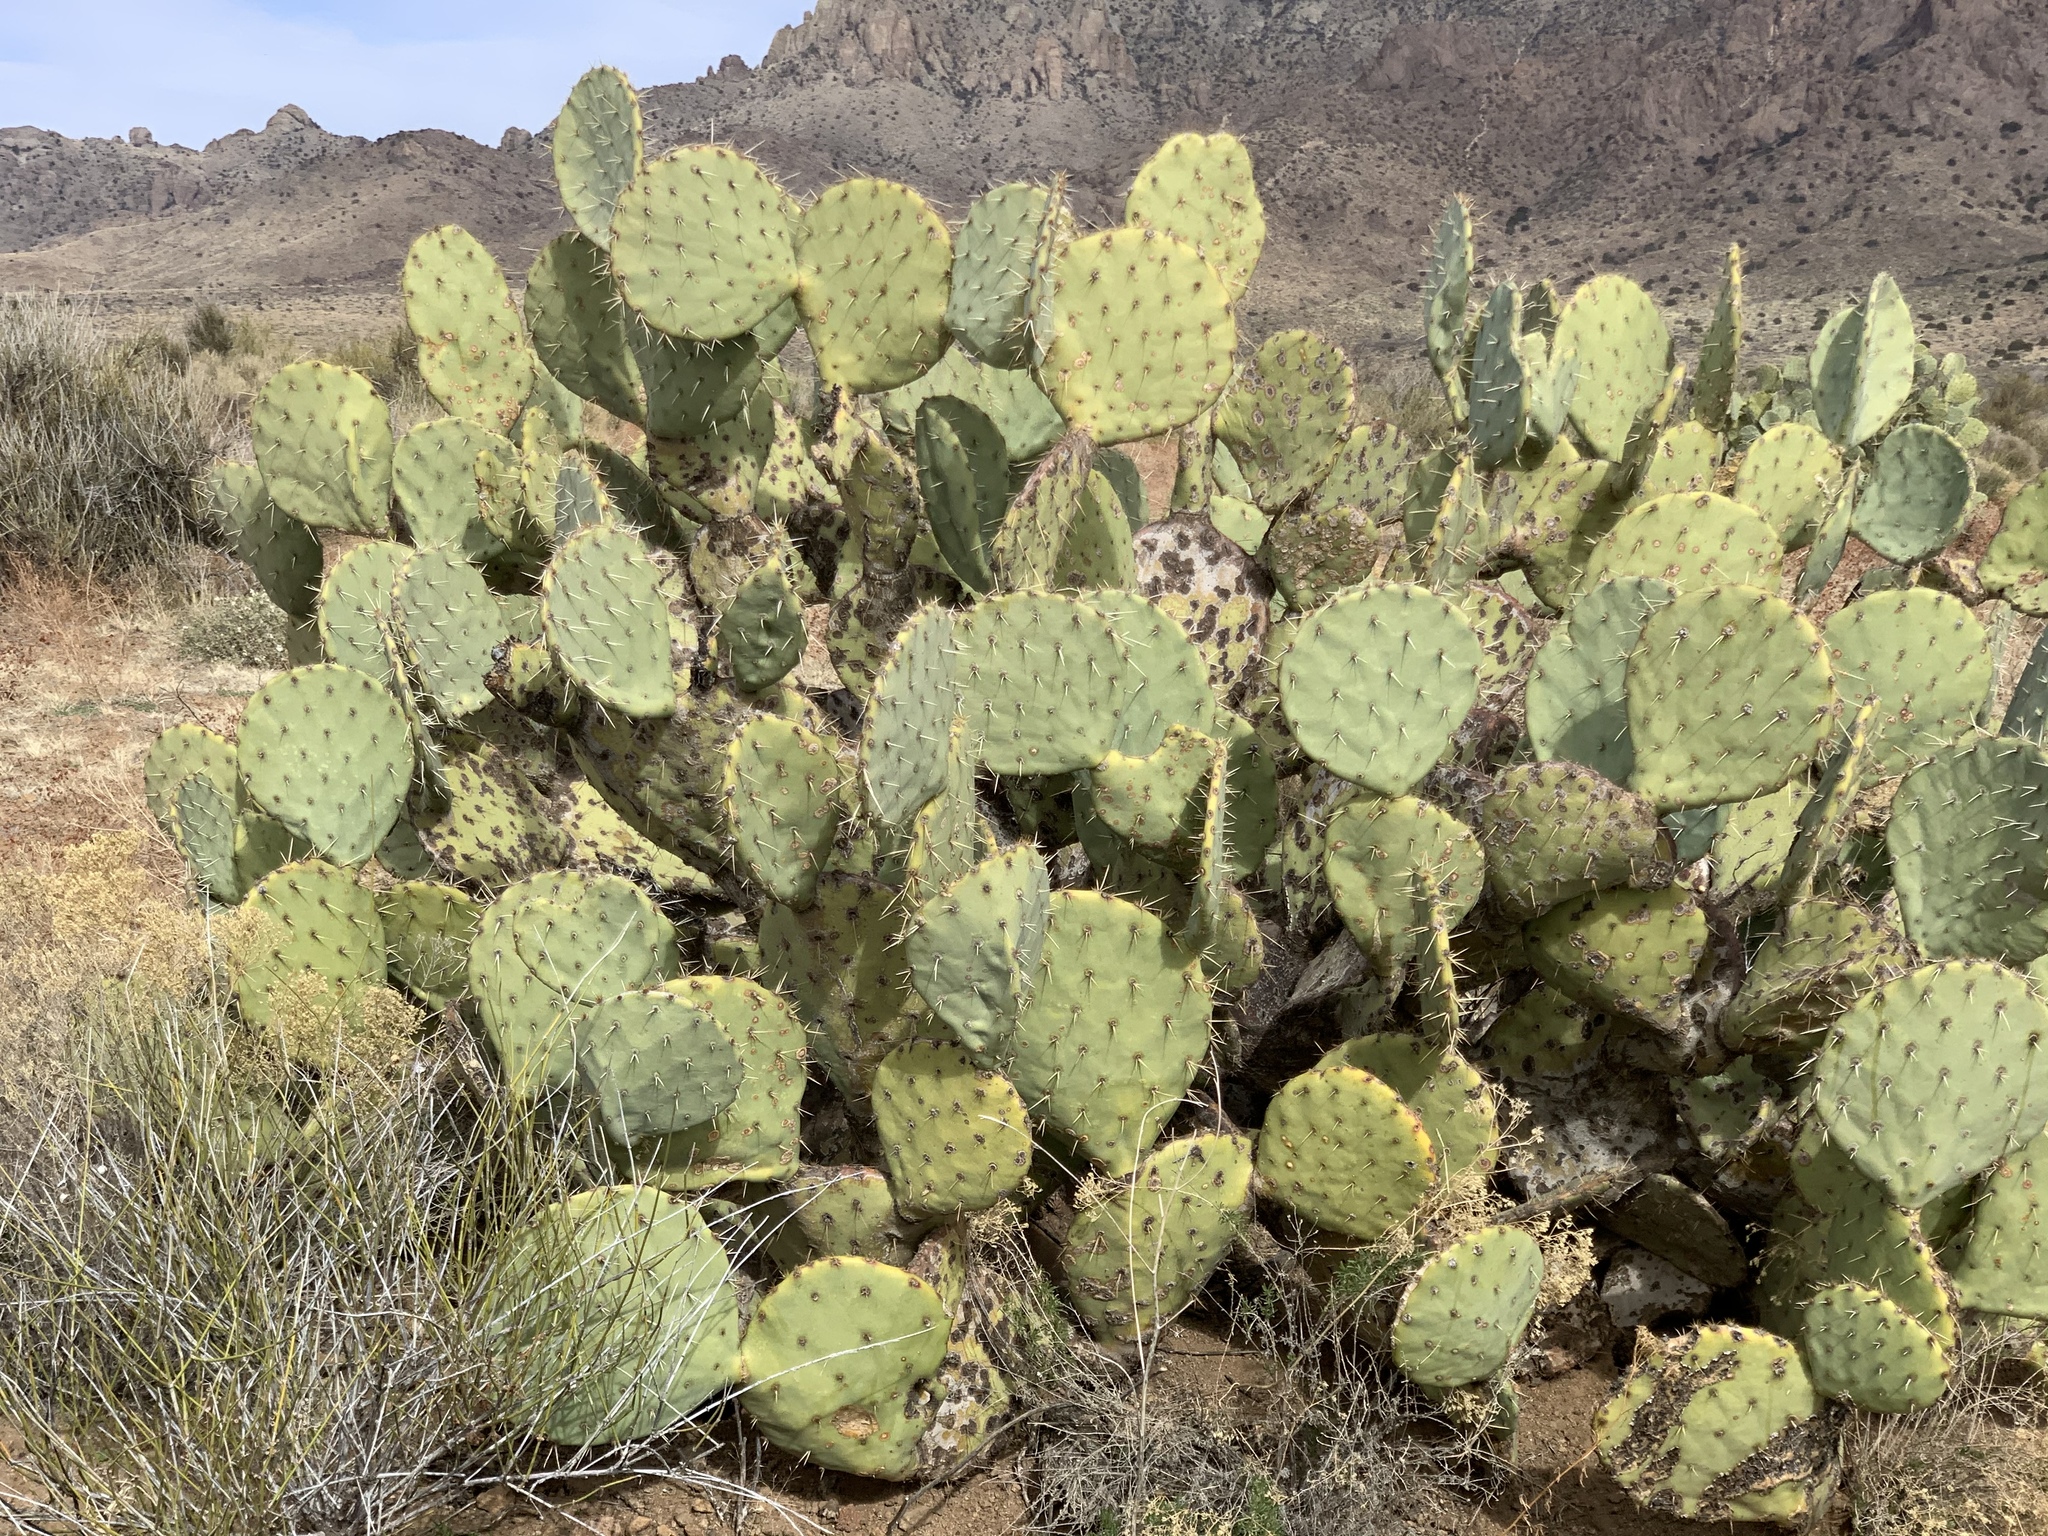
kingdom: Plantae
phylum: Tracheophyta
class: Magnoliopsida
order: Caryophyllales
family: Cactaceae
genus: Opuntia
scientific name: Opuntia engelmannii
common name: Cactus-apple
